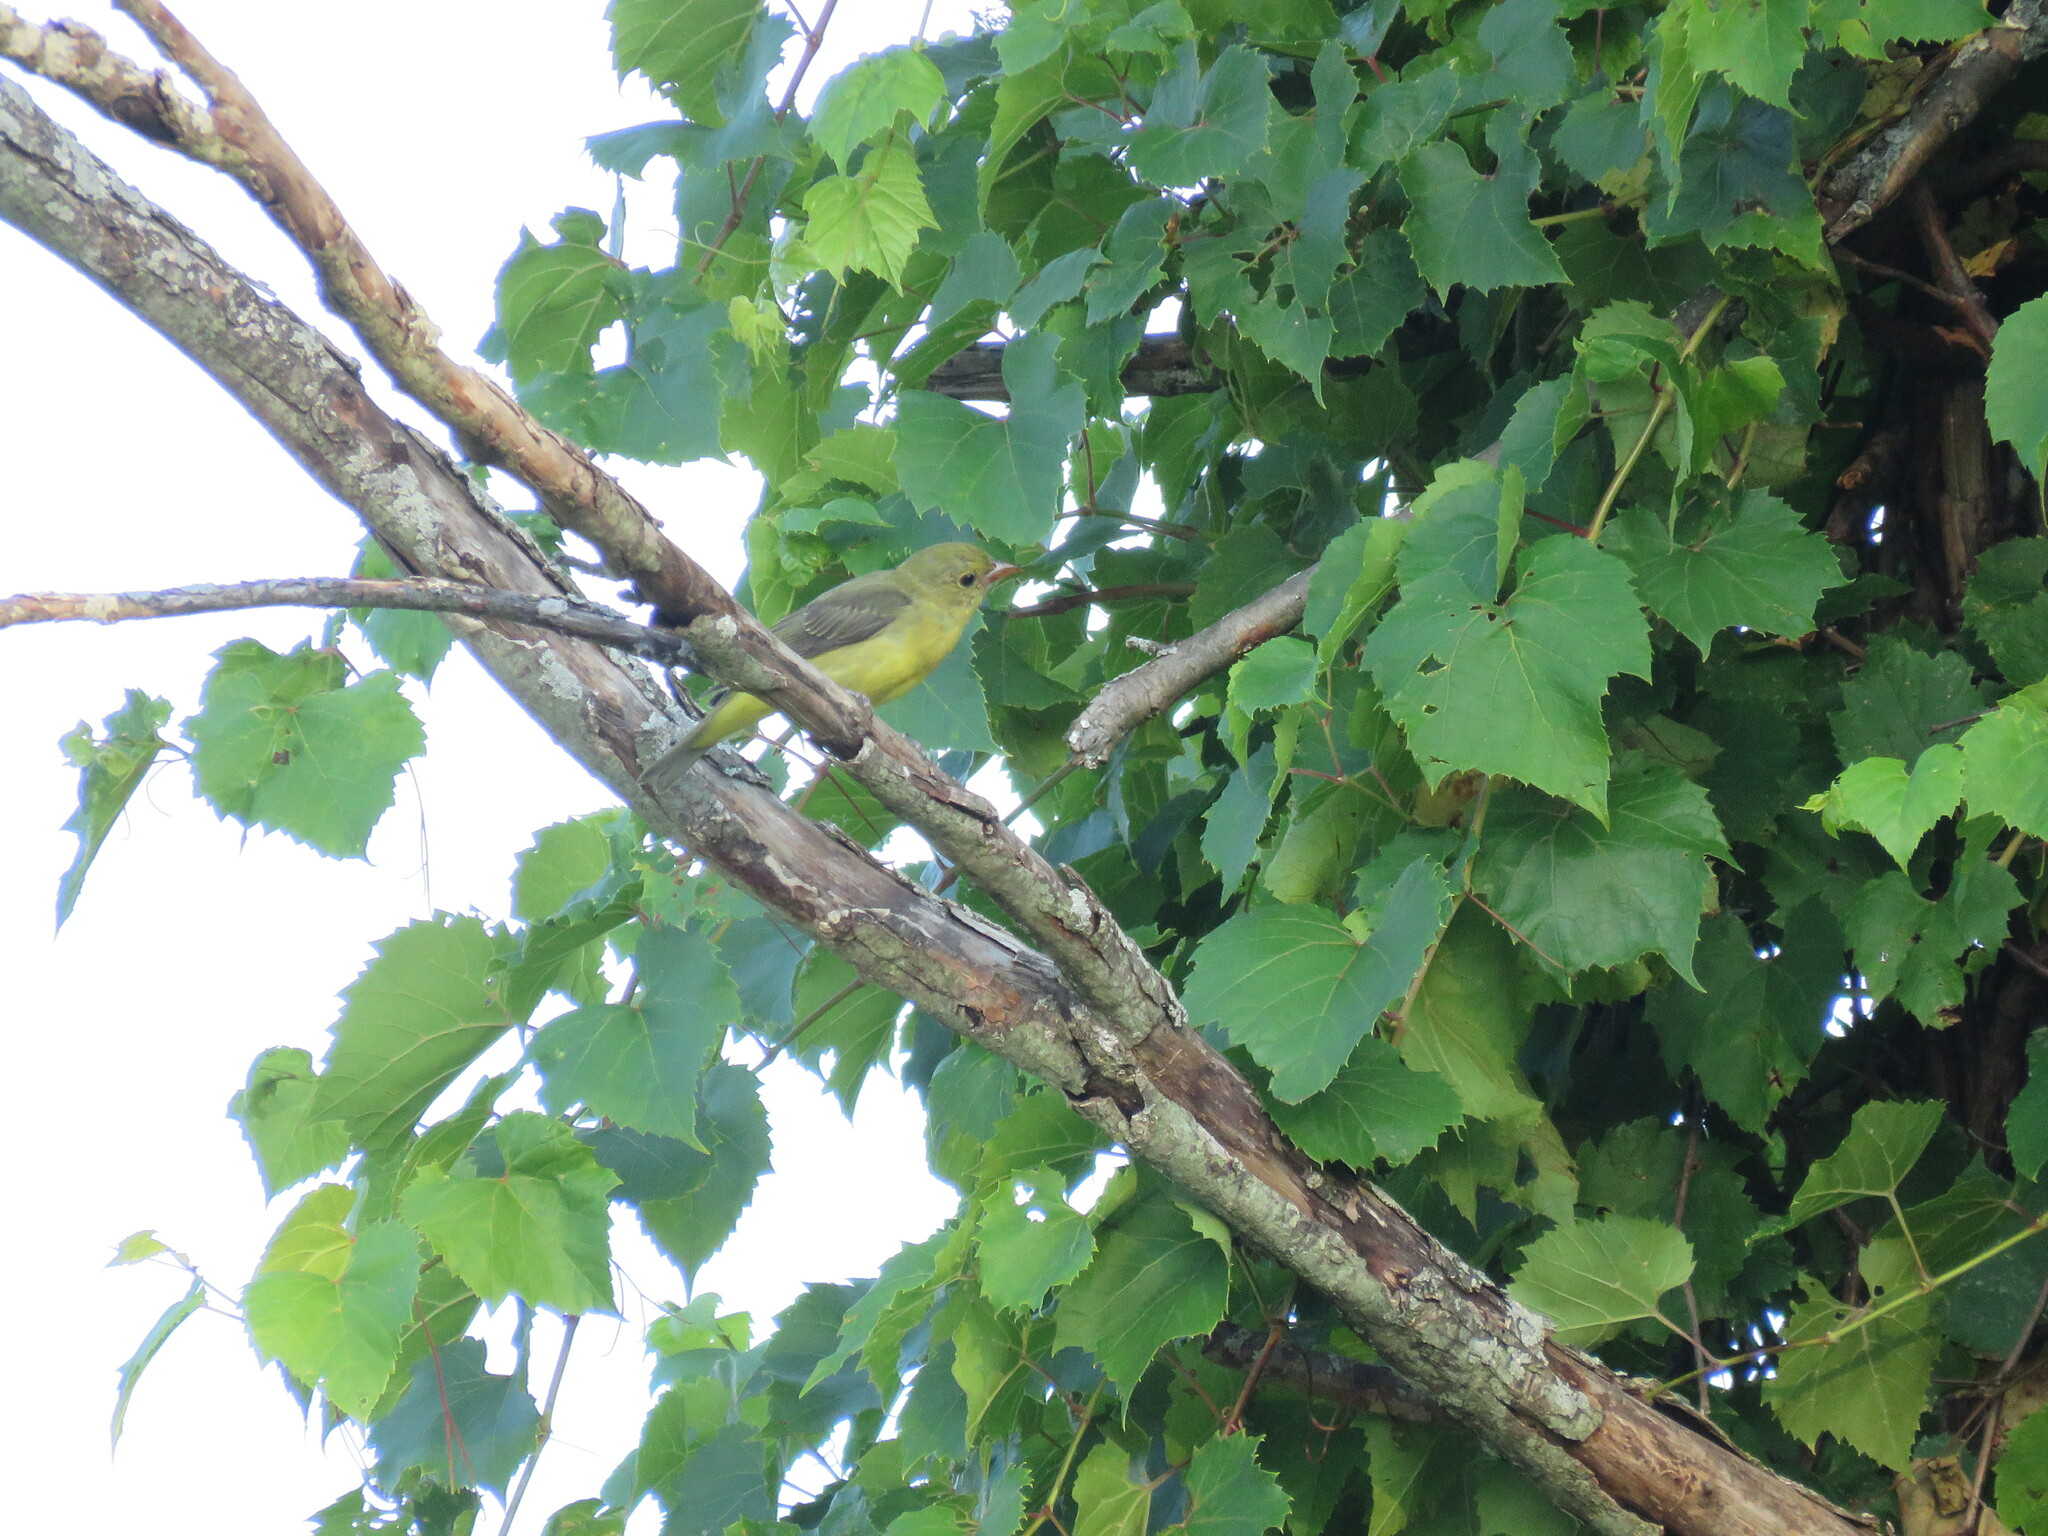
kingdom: Animalia
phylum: Chordata
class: Aves
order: Passeriformes
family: Cardinalidae
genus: Piranga
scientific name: Piranga olivacea
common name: Scarlet tanager
